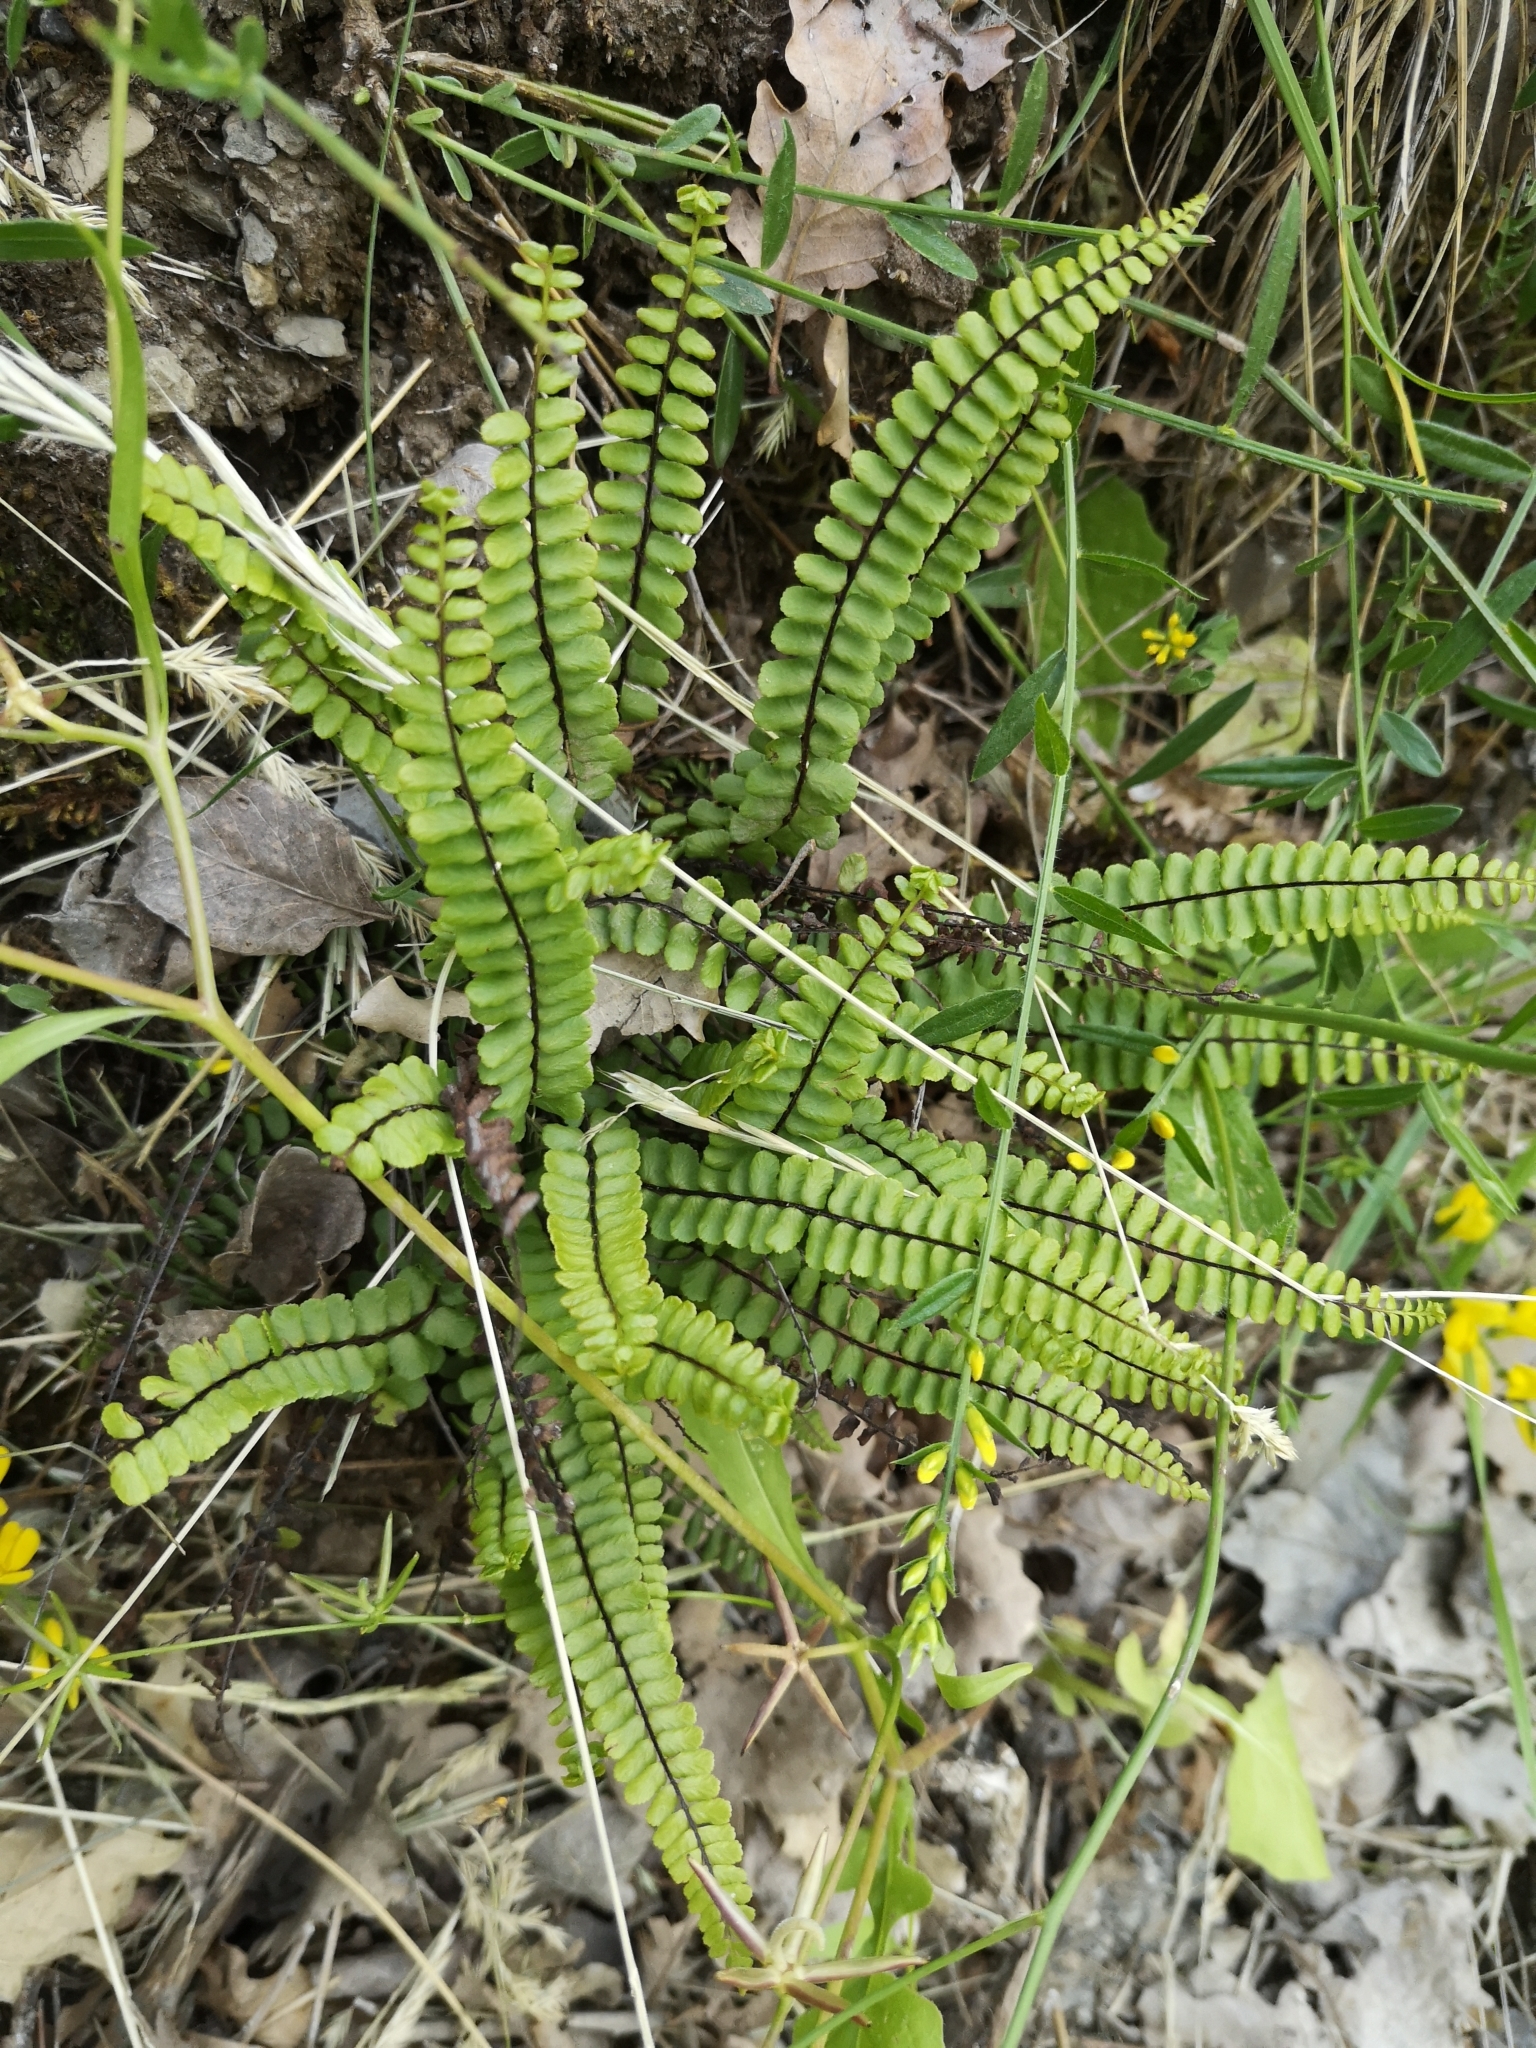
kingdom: Plantae
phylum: Tracheophyta
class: Polypodiopsida
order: Polypodiales
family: Aspleniaceae
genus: Asplenium
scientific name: Asplenium trichomanes
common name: Maidenhair spleenwort
